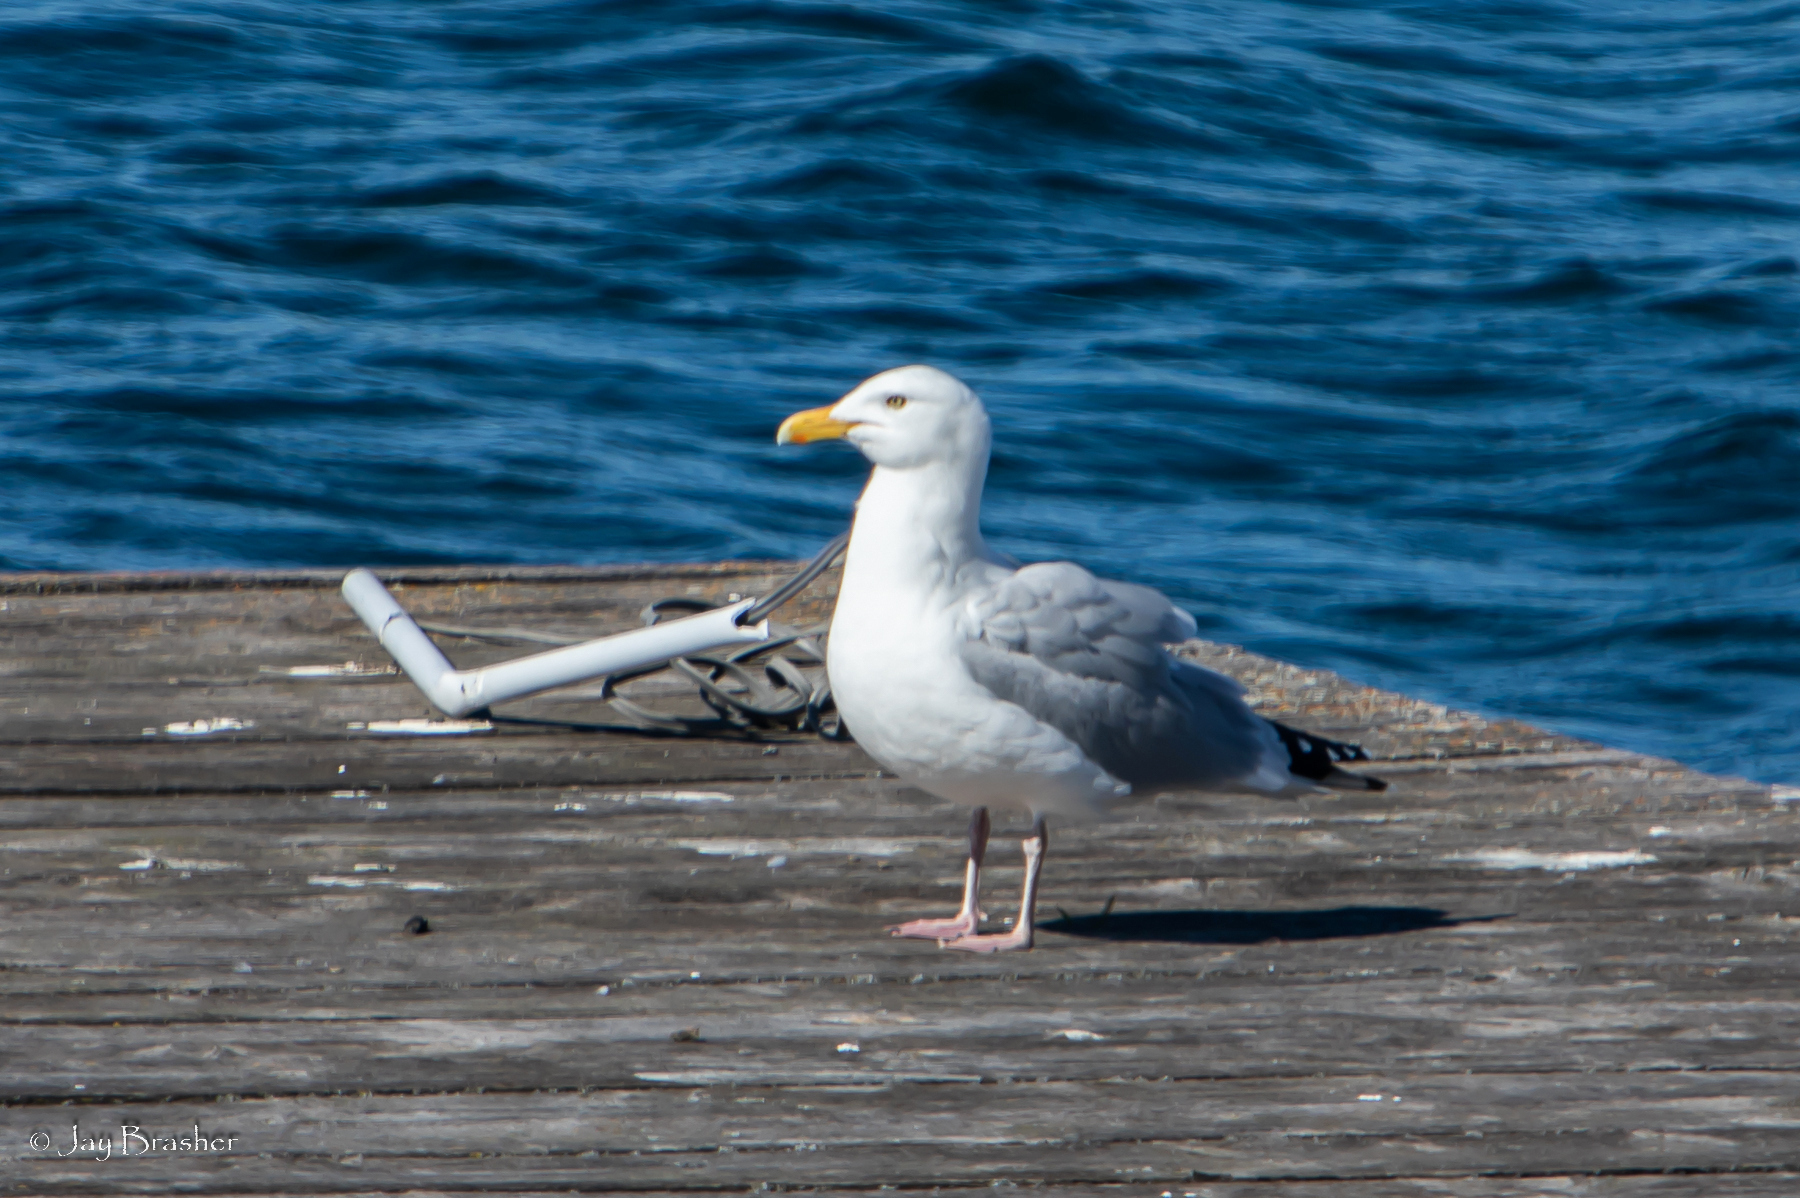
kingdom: Animalia
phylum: Chordata
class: Aves
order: Charadriiformes
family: Laridae
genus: Larus
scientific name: Larus argentatus
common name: Herring gull
